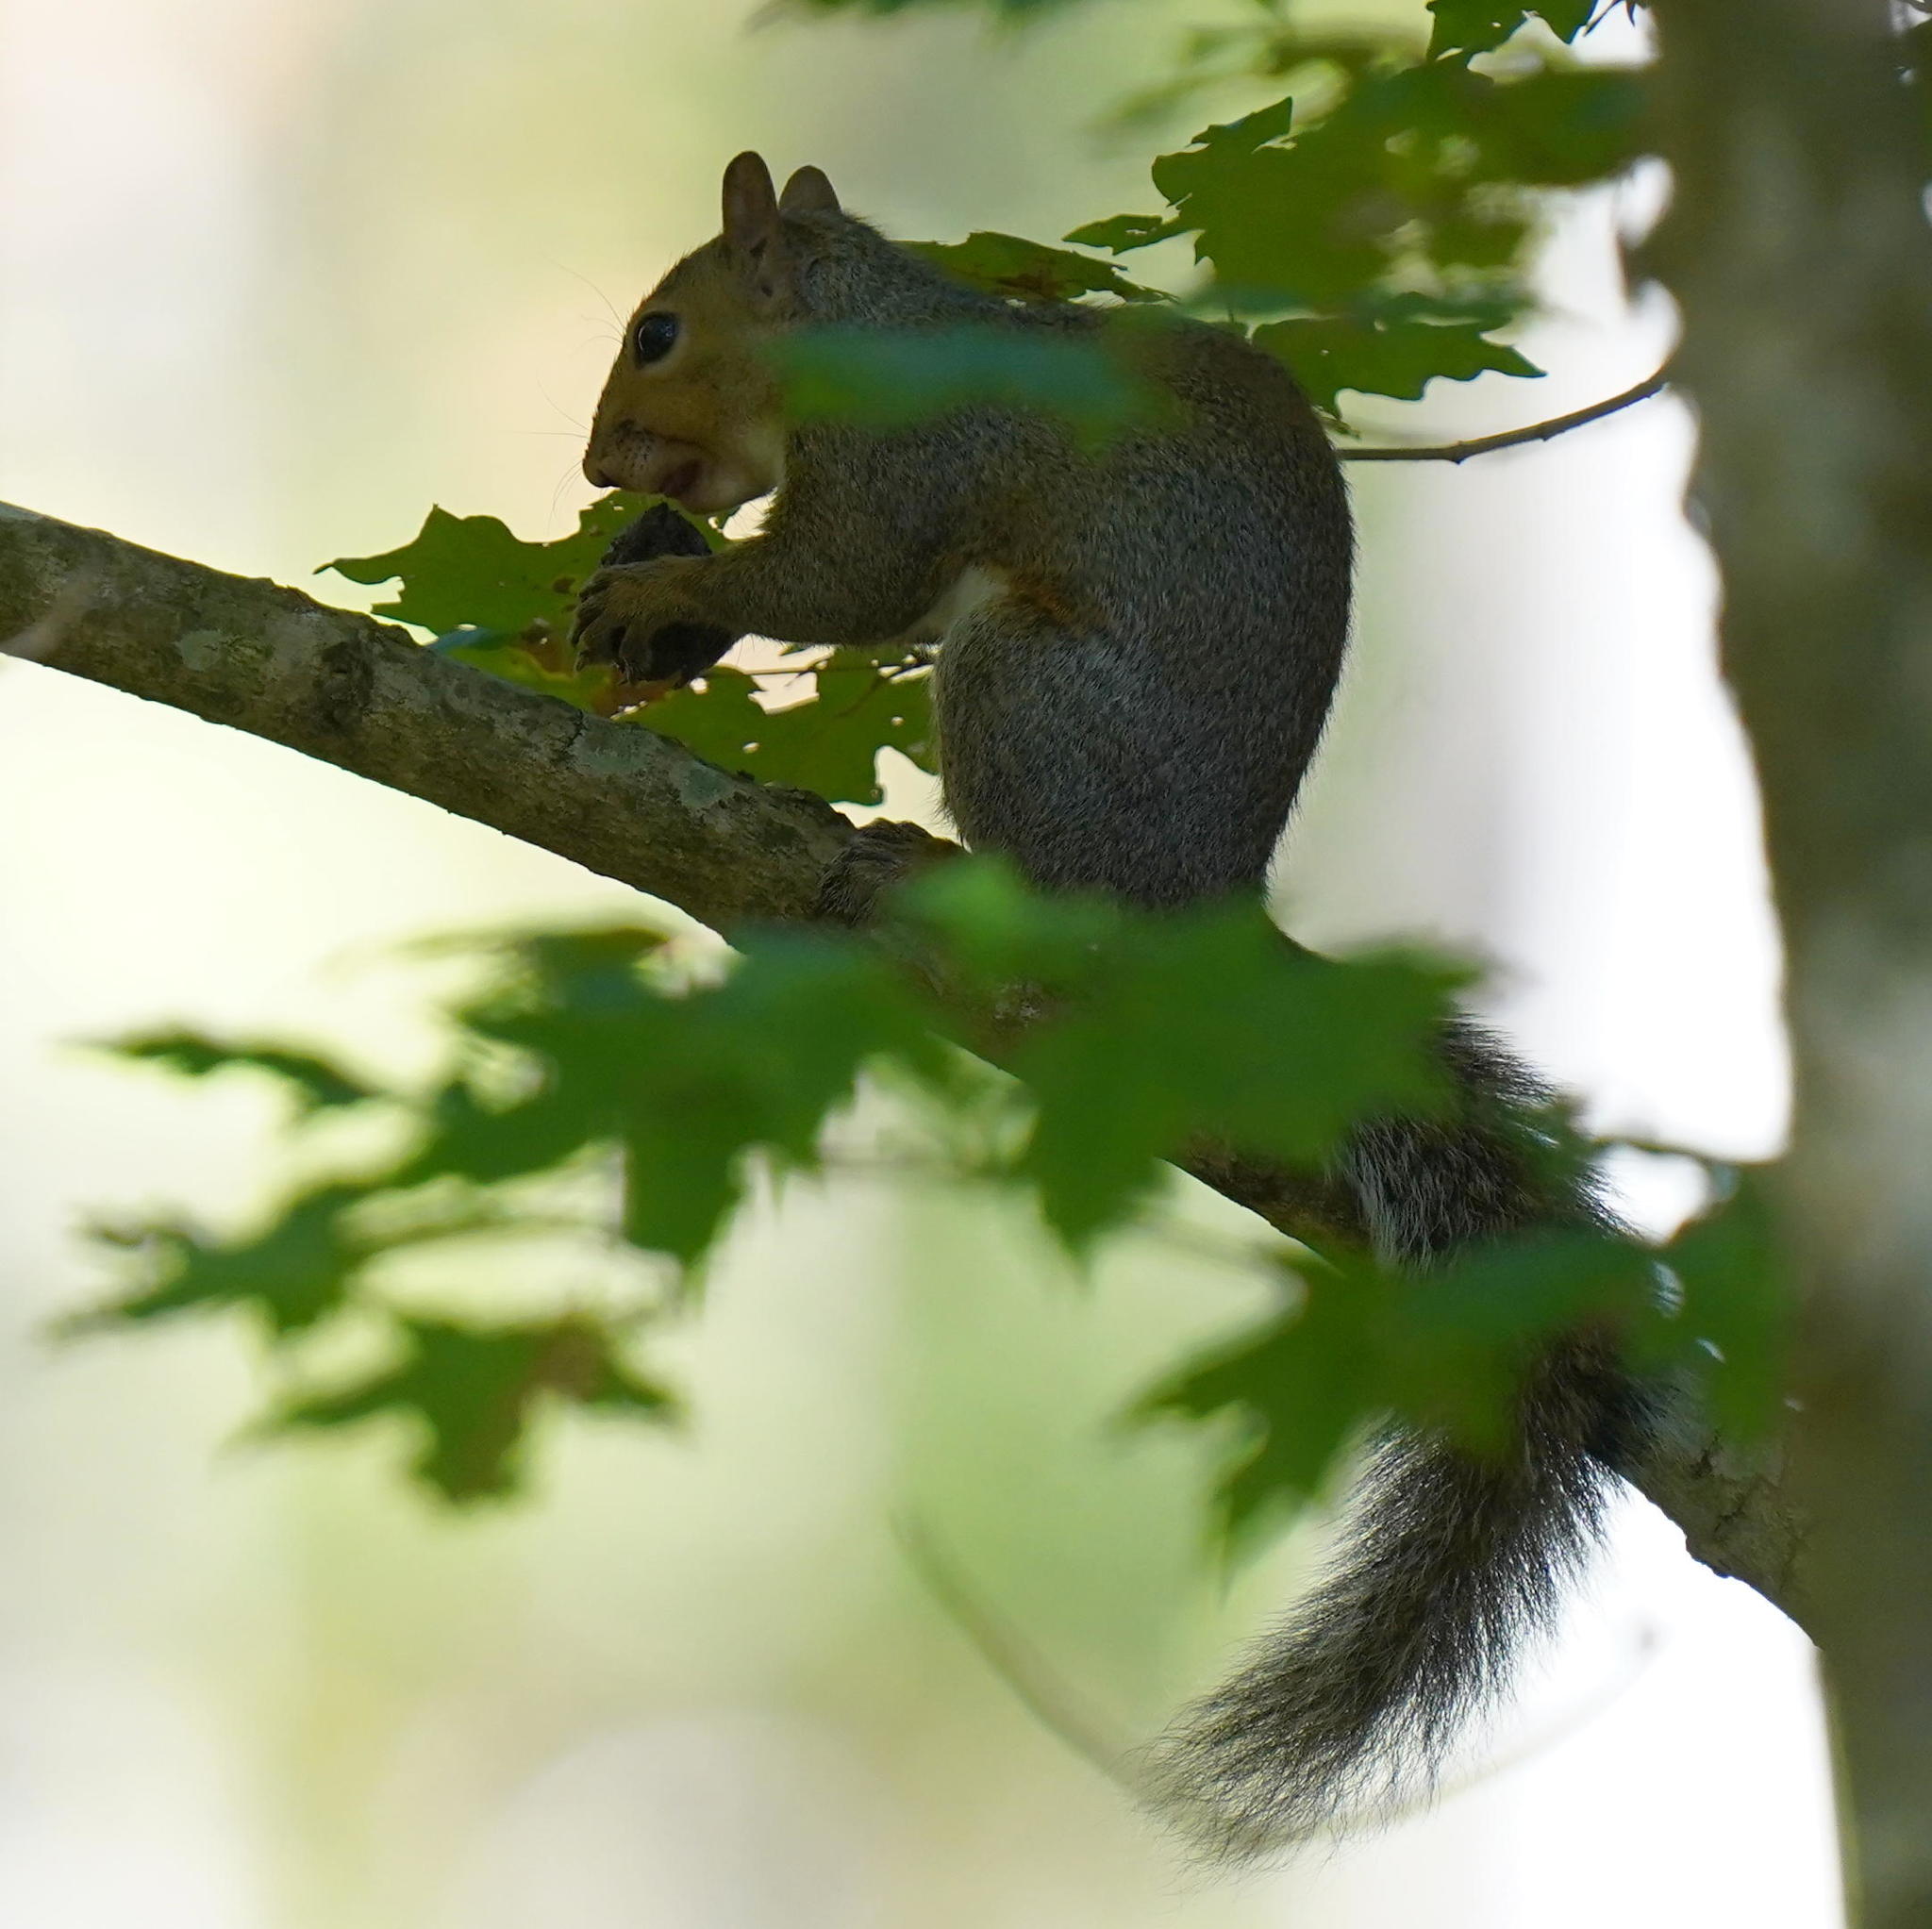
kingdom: Animalia
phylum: Chordata
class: Mammalia
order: Rodentia
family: Sciuridae
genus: Sciurus
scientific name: Sciurus carolinensis
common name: Eastern gray squirrel
